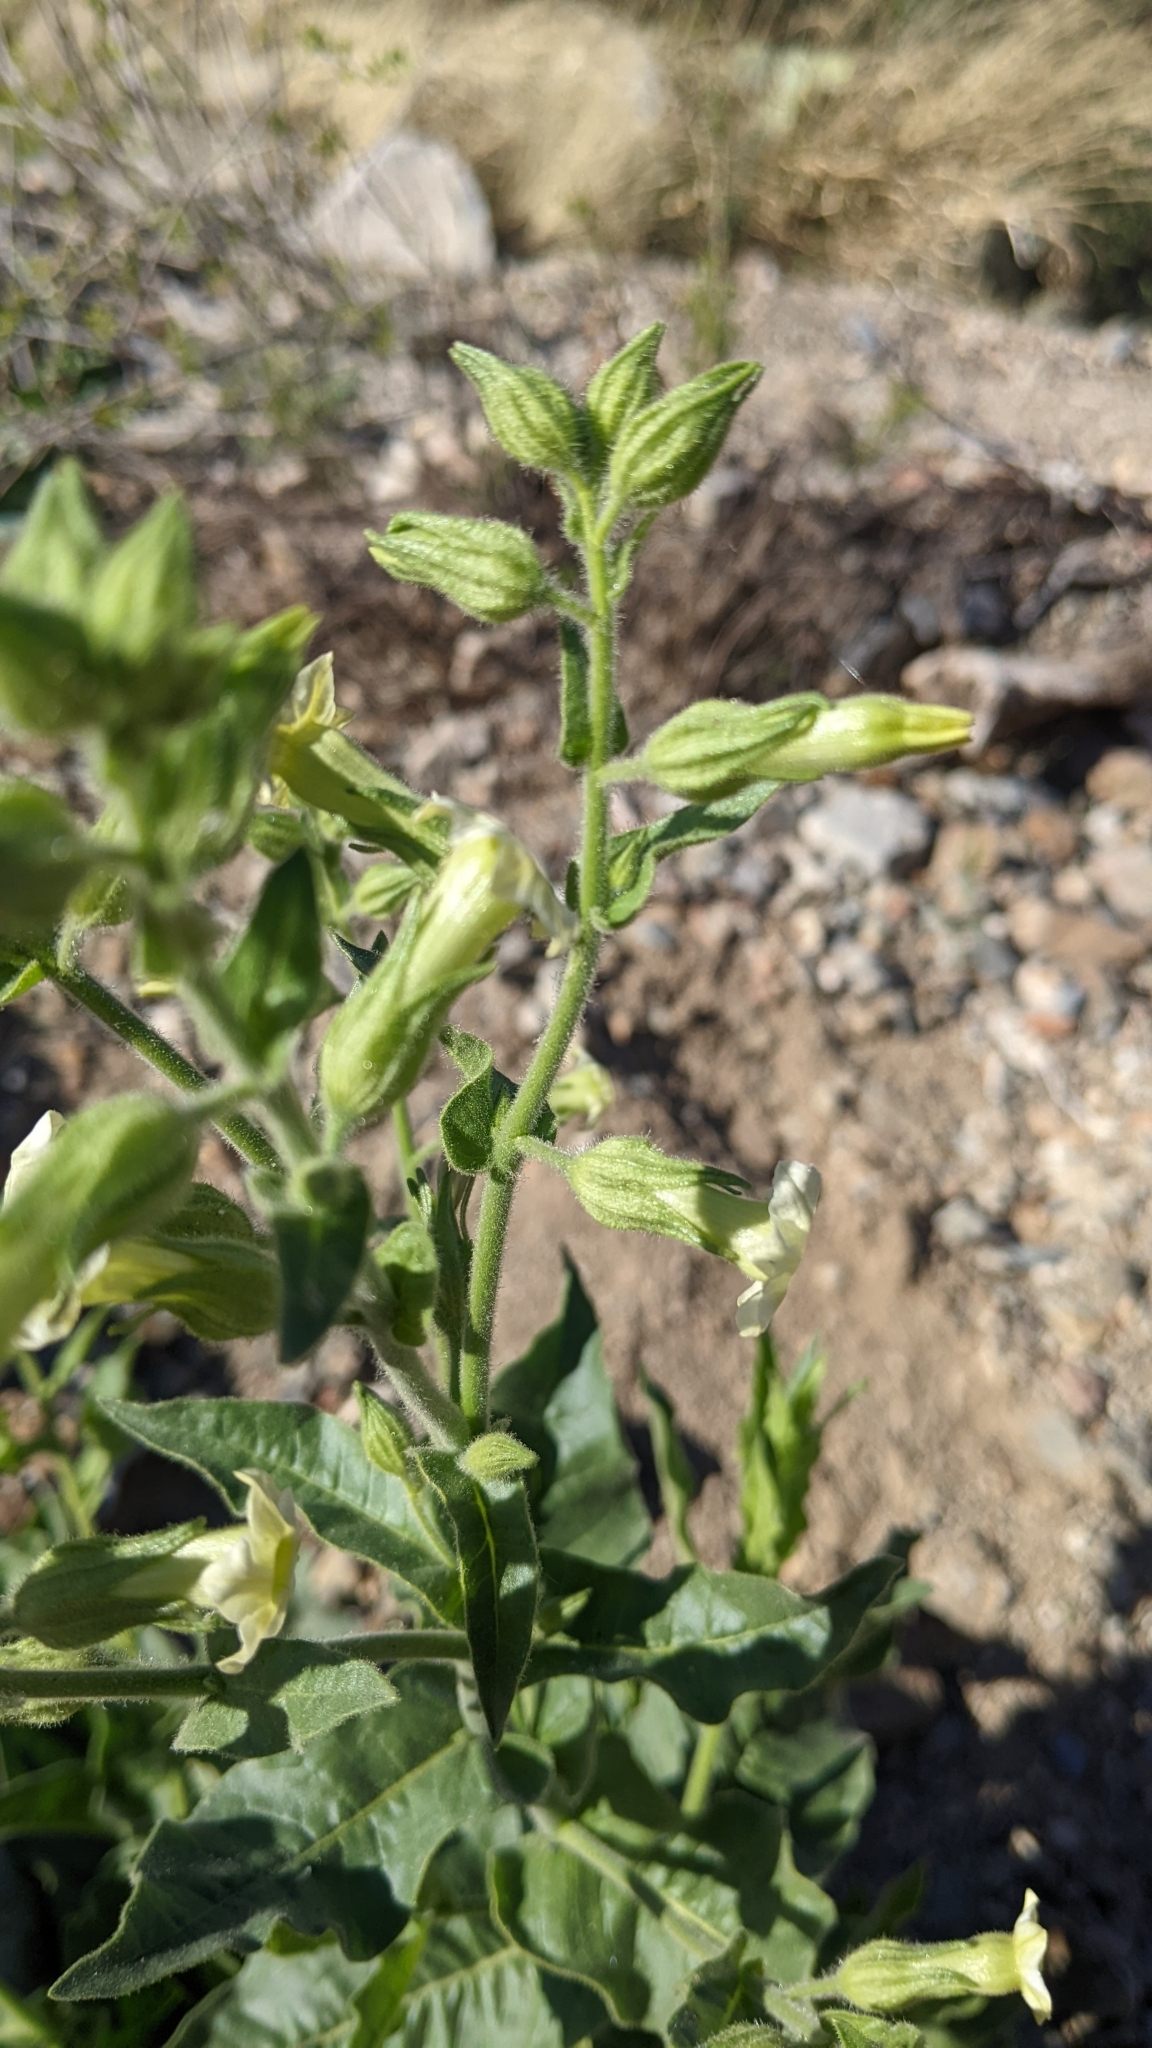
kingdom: Plantae
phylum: Tracheophyta
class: Magnoliopsida
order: Solanales
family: Solanaceae
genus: Nicotiana
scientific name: Nicotiana obtusifolia
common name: Desert tobacco
